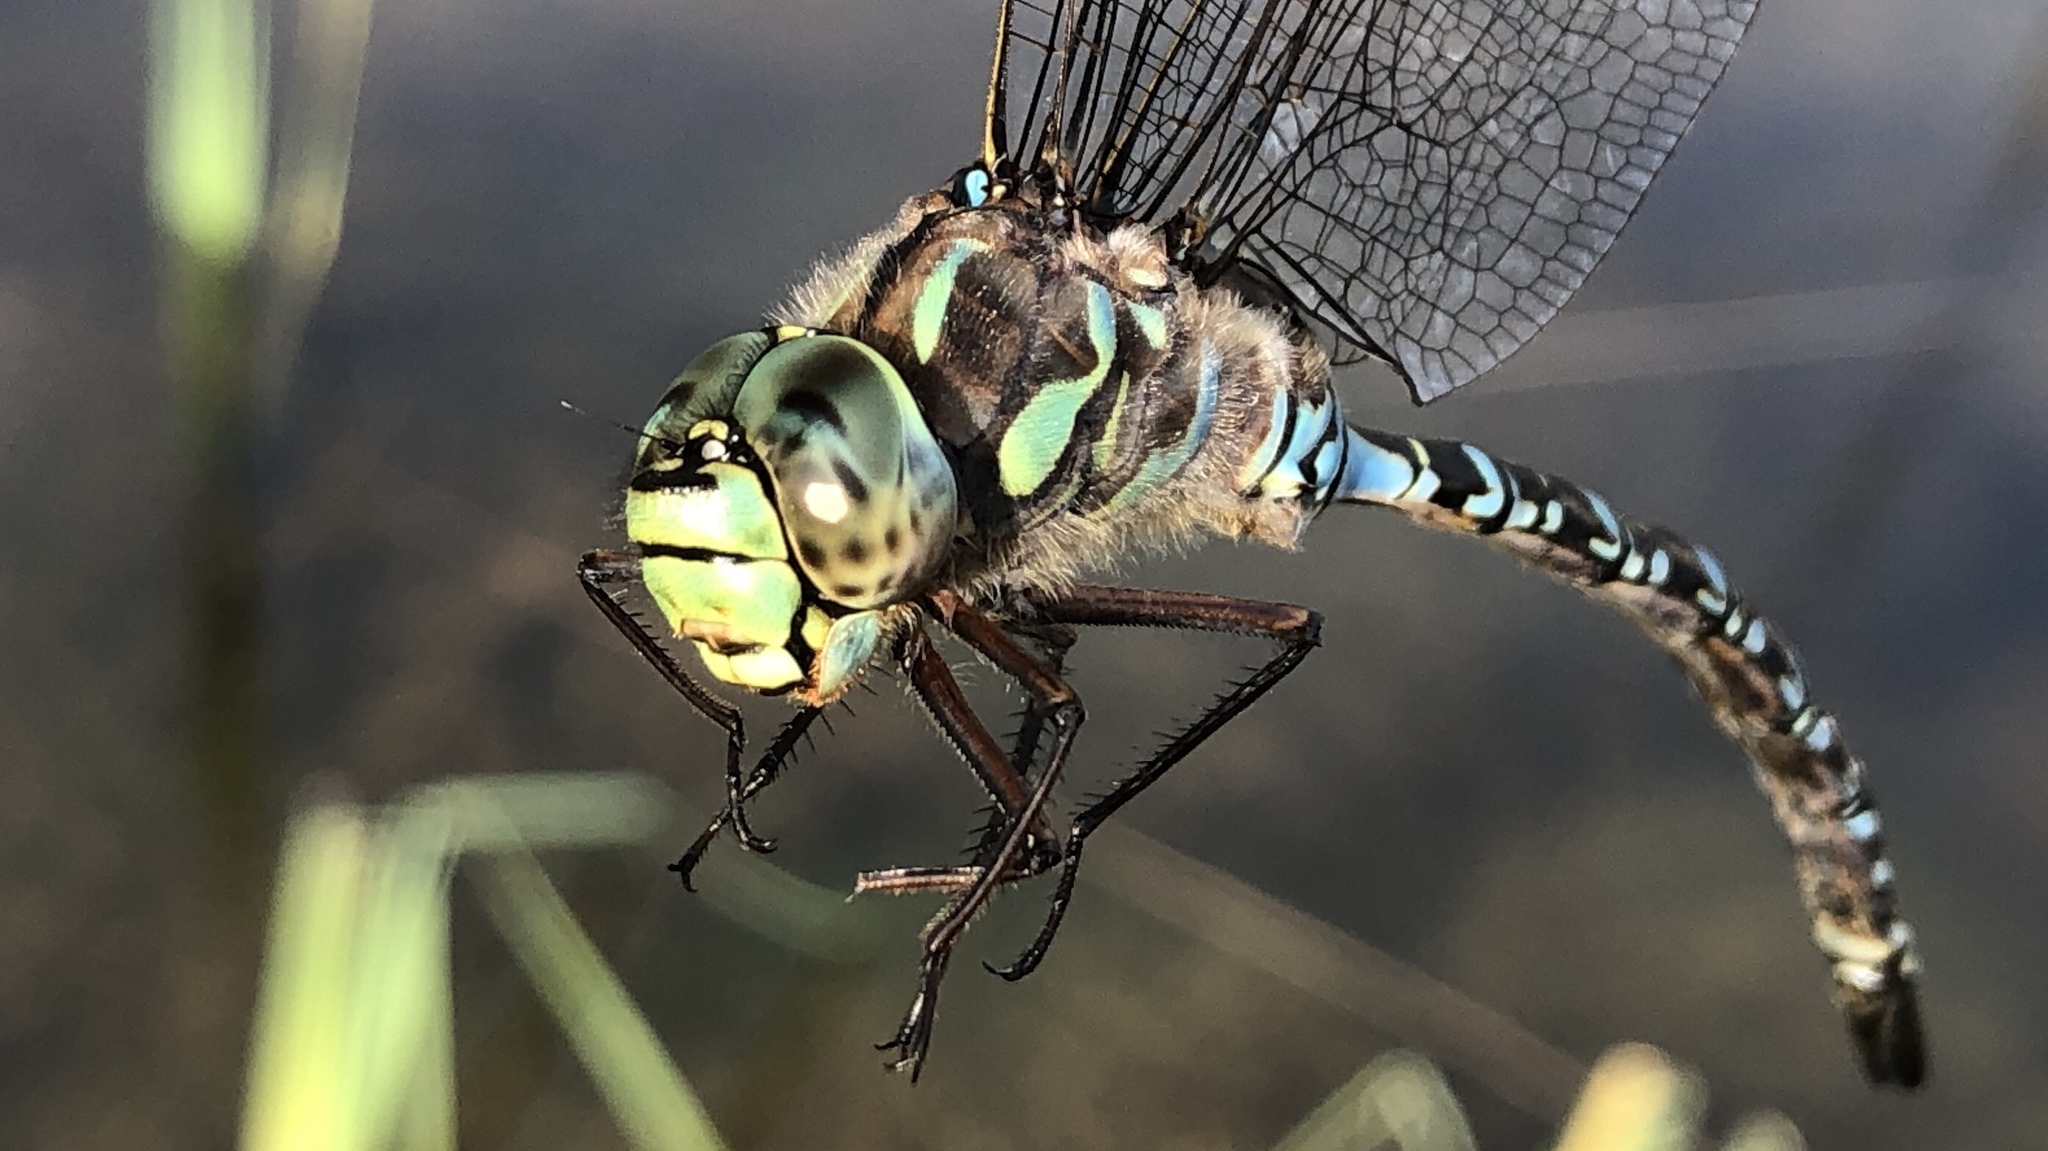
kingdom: Animalia
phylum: Arthropoda
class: Insecta
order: Odonata
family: Aeshnidae
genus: Aeshna
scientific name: Aeshna eremita
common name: Lake darner
